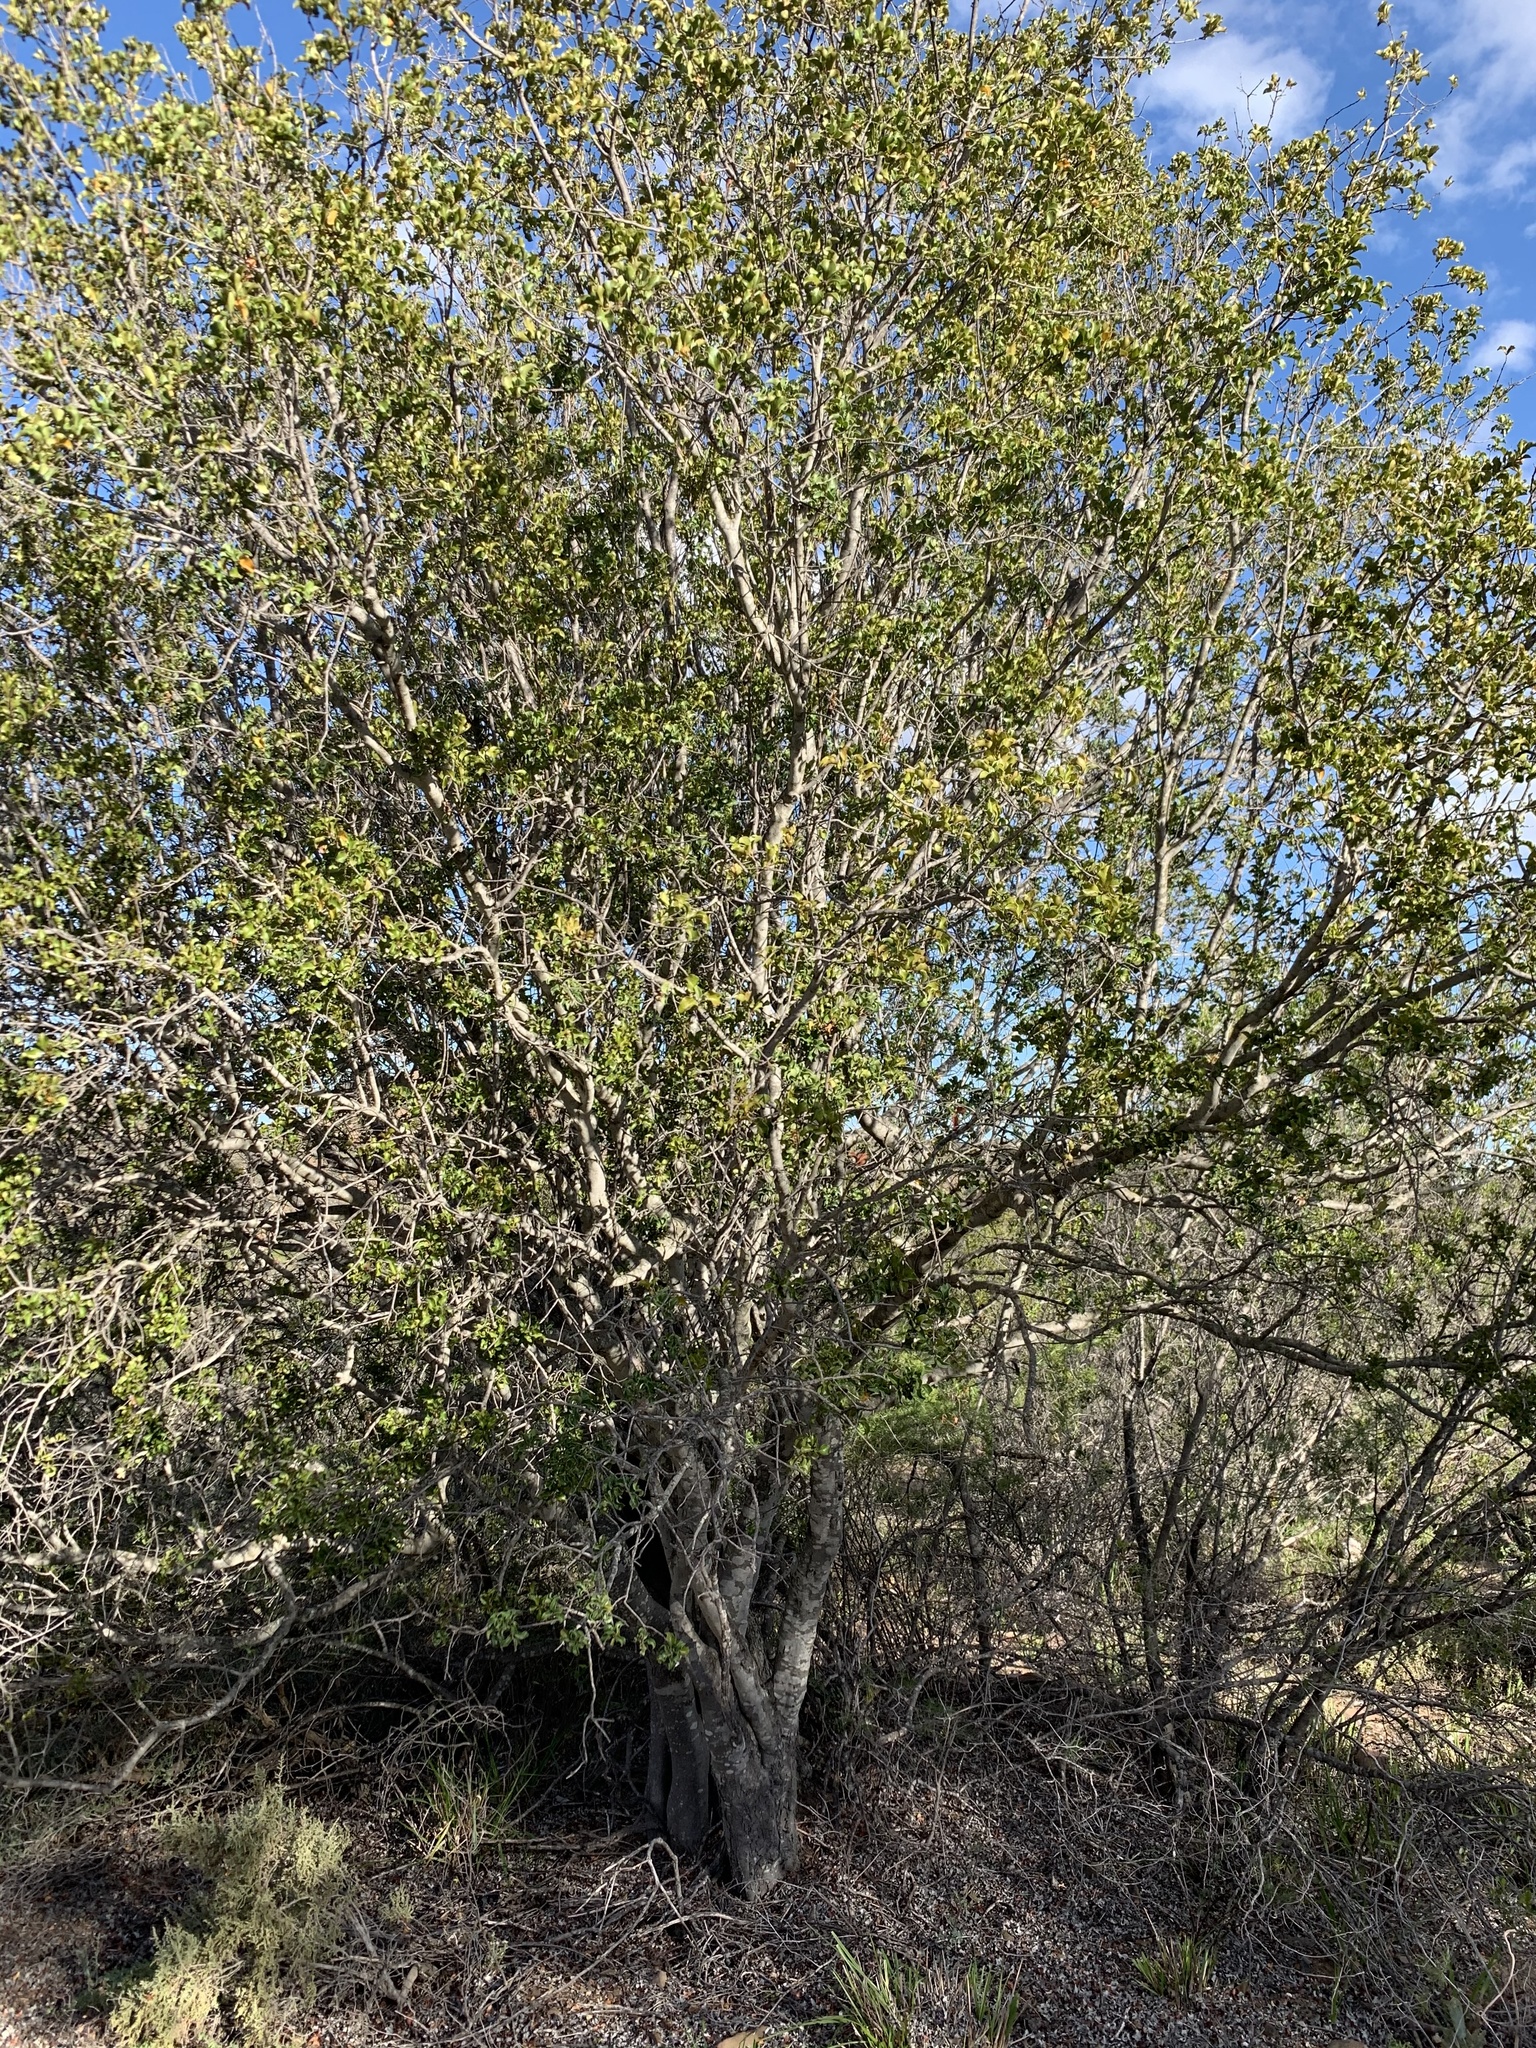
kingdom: Plantae
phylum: Tracheophyta
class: Magnoliopsida
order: Ericales
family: Ebenaceae
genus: Euclea
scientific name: Euclea undulata
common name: Small-leaved guarri
